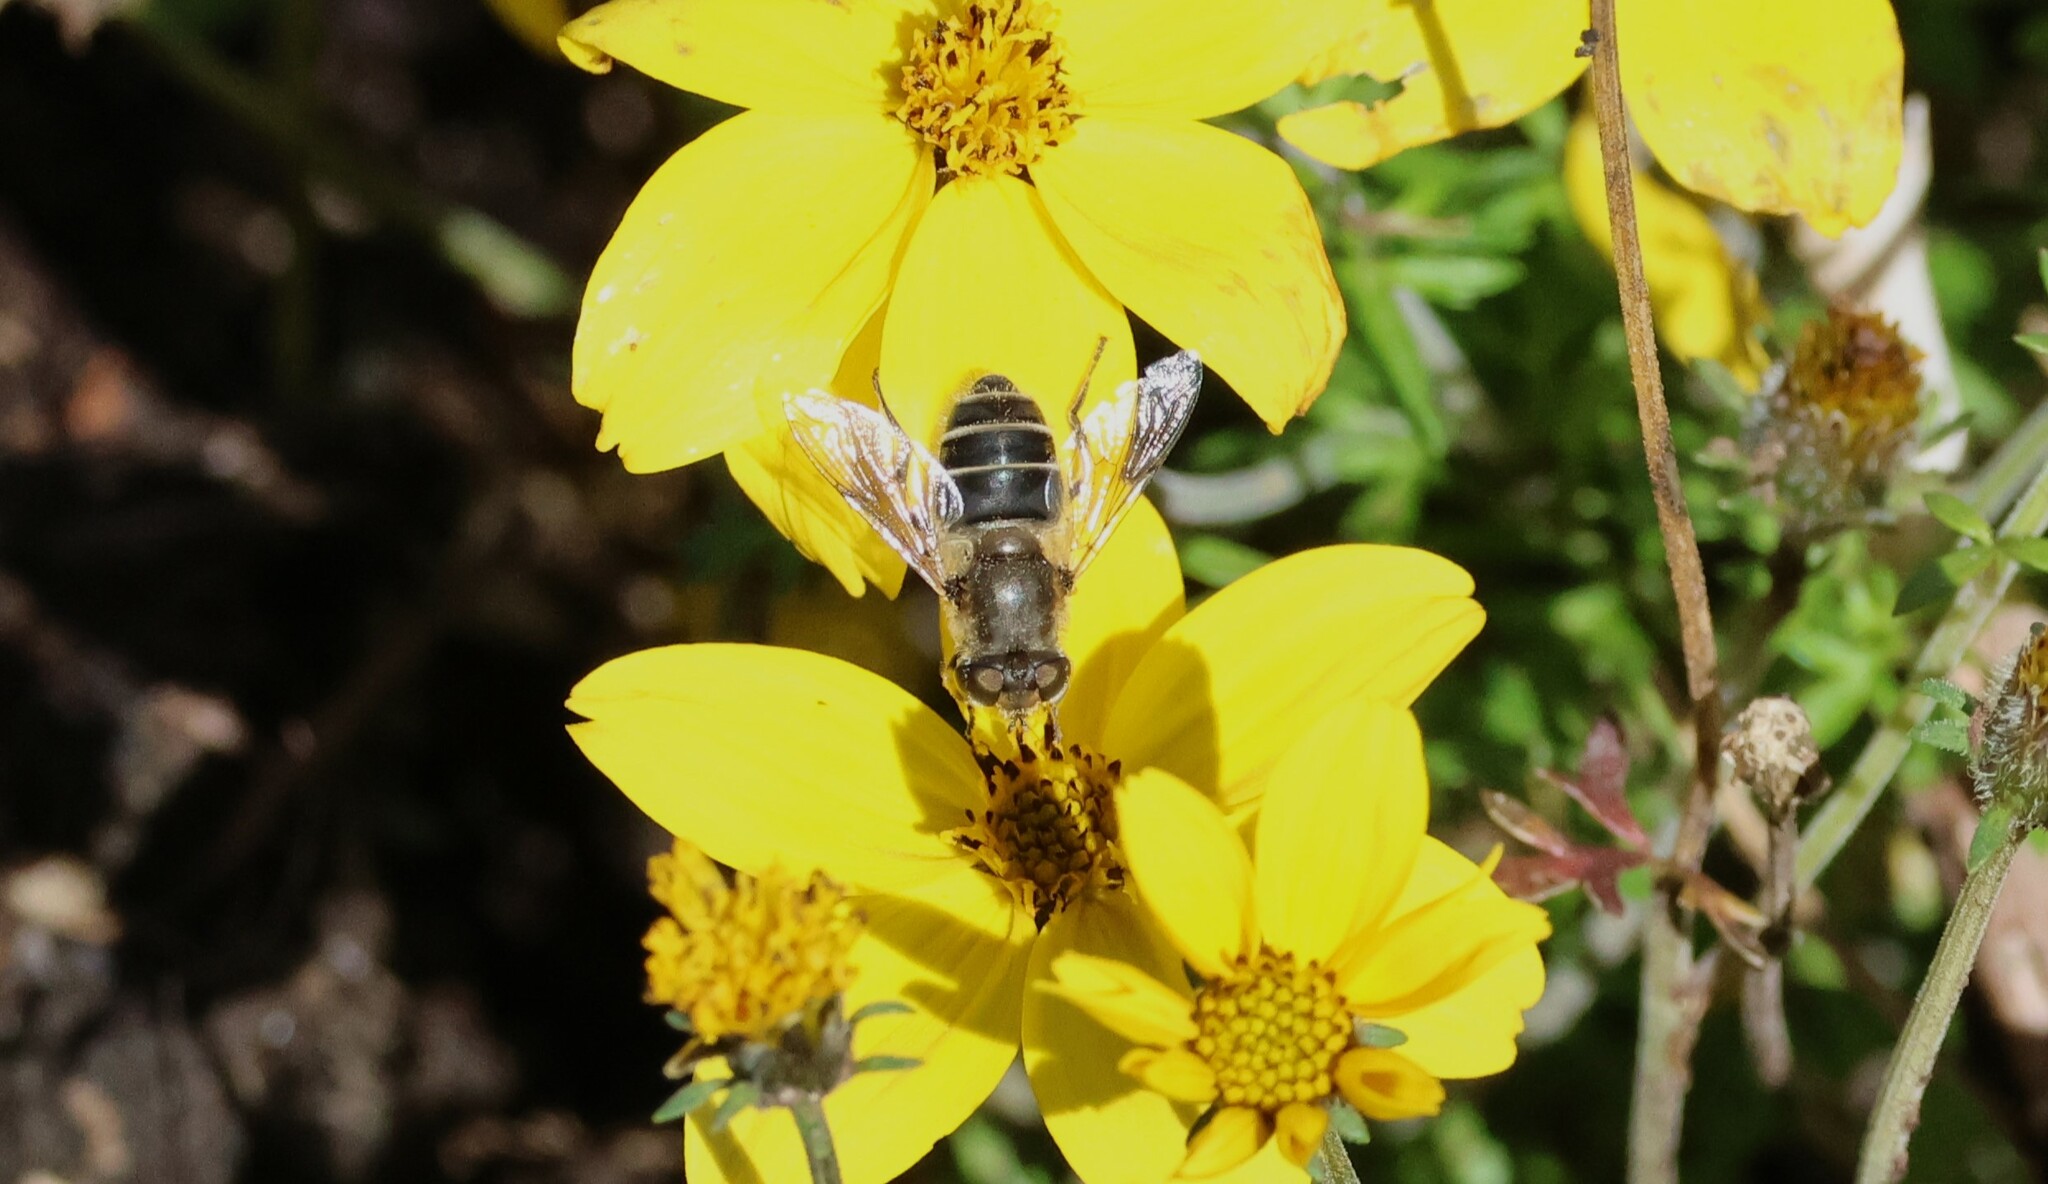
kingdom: Animalia
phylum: Arthropoda
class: Insecta
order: Diptera
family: Syrphidae
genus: Eristalis
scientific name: Eristalis arbustorum
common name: Hover fly
